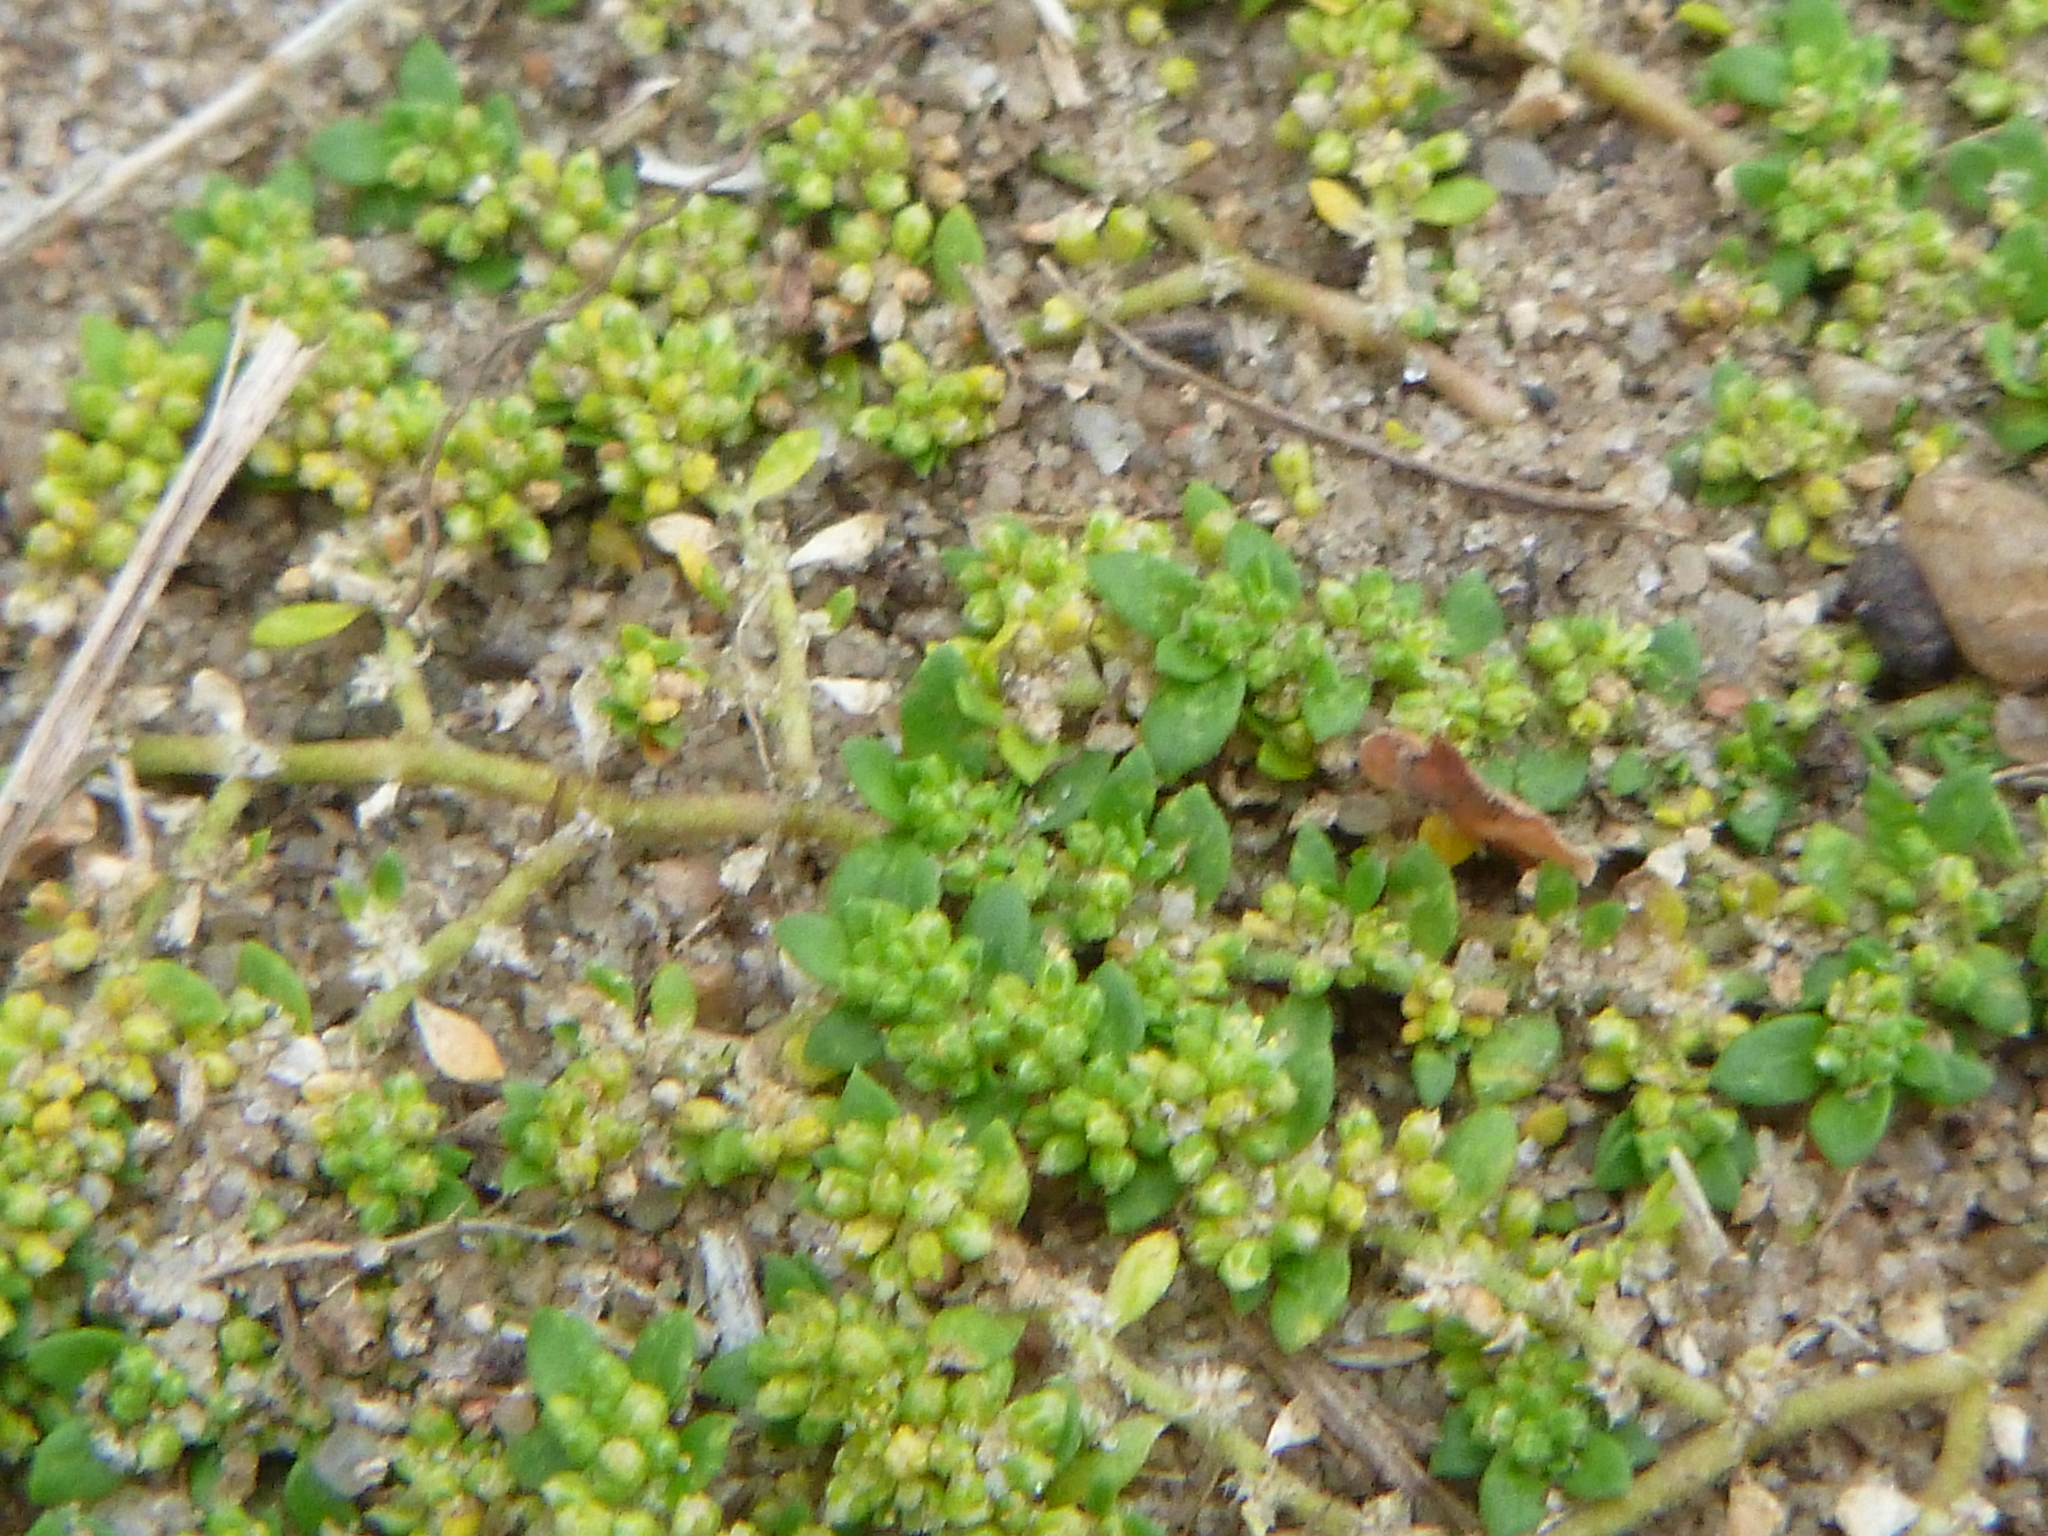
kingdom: Plantae
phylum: Tracheophyta
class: Magnoliopsida
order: Caryophyllales
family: Caryophyllaceae
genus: Herniaria
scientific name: Herniaria glabra
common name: Smooth rupturewort
